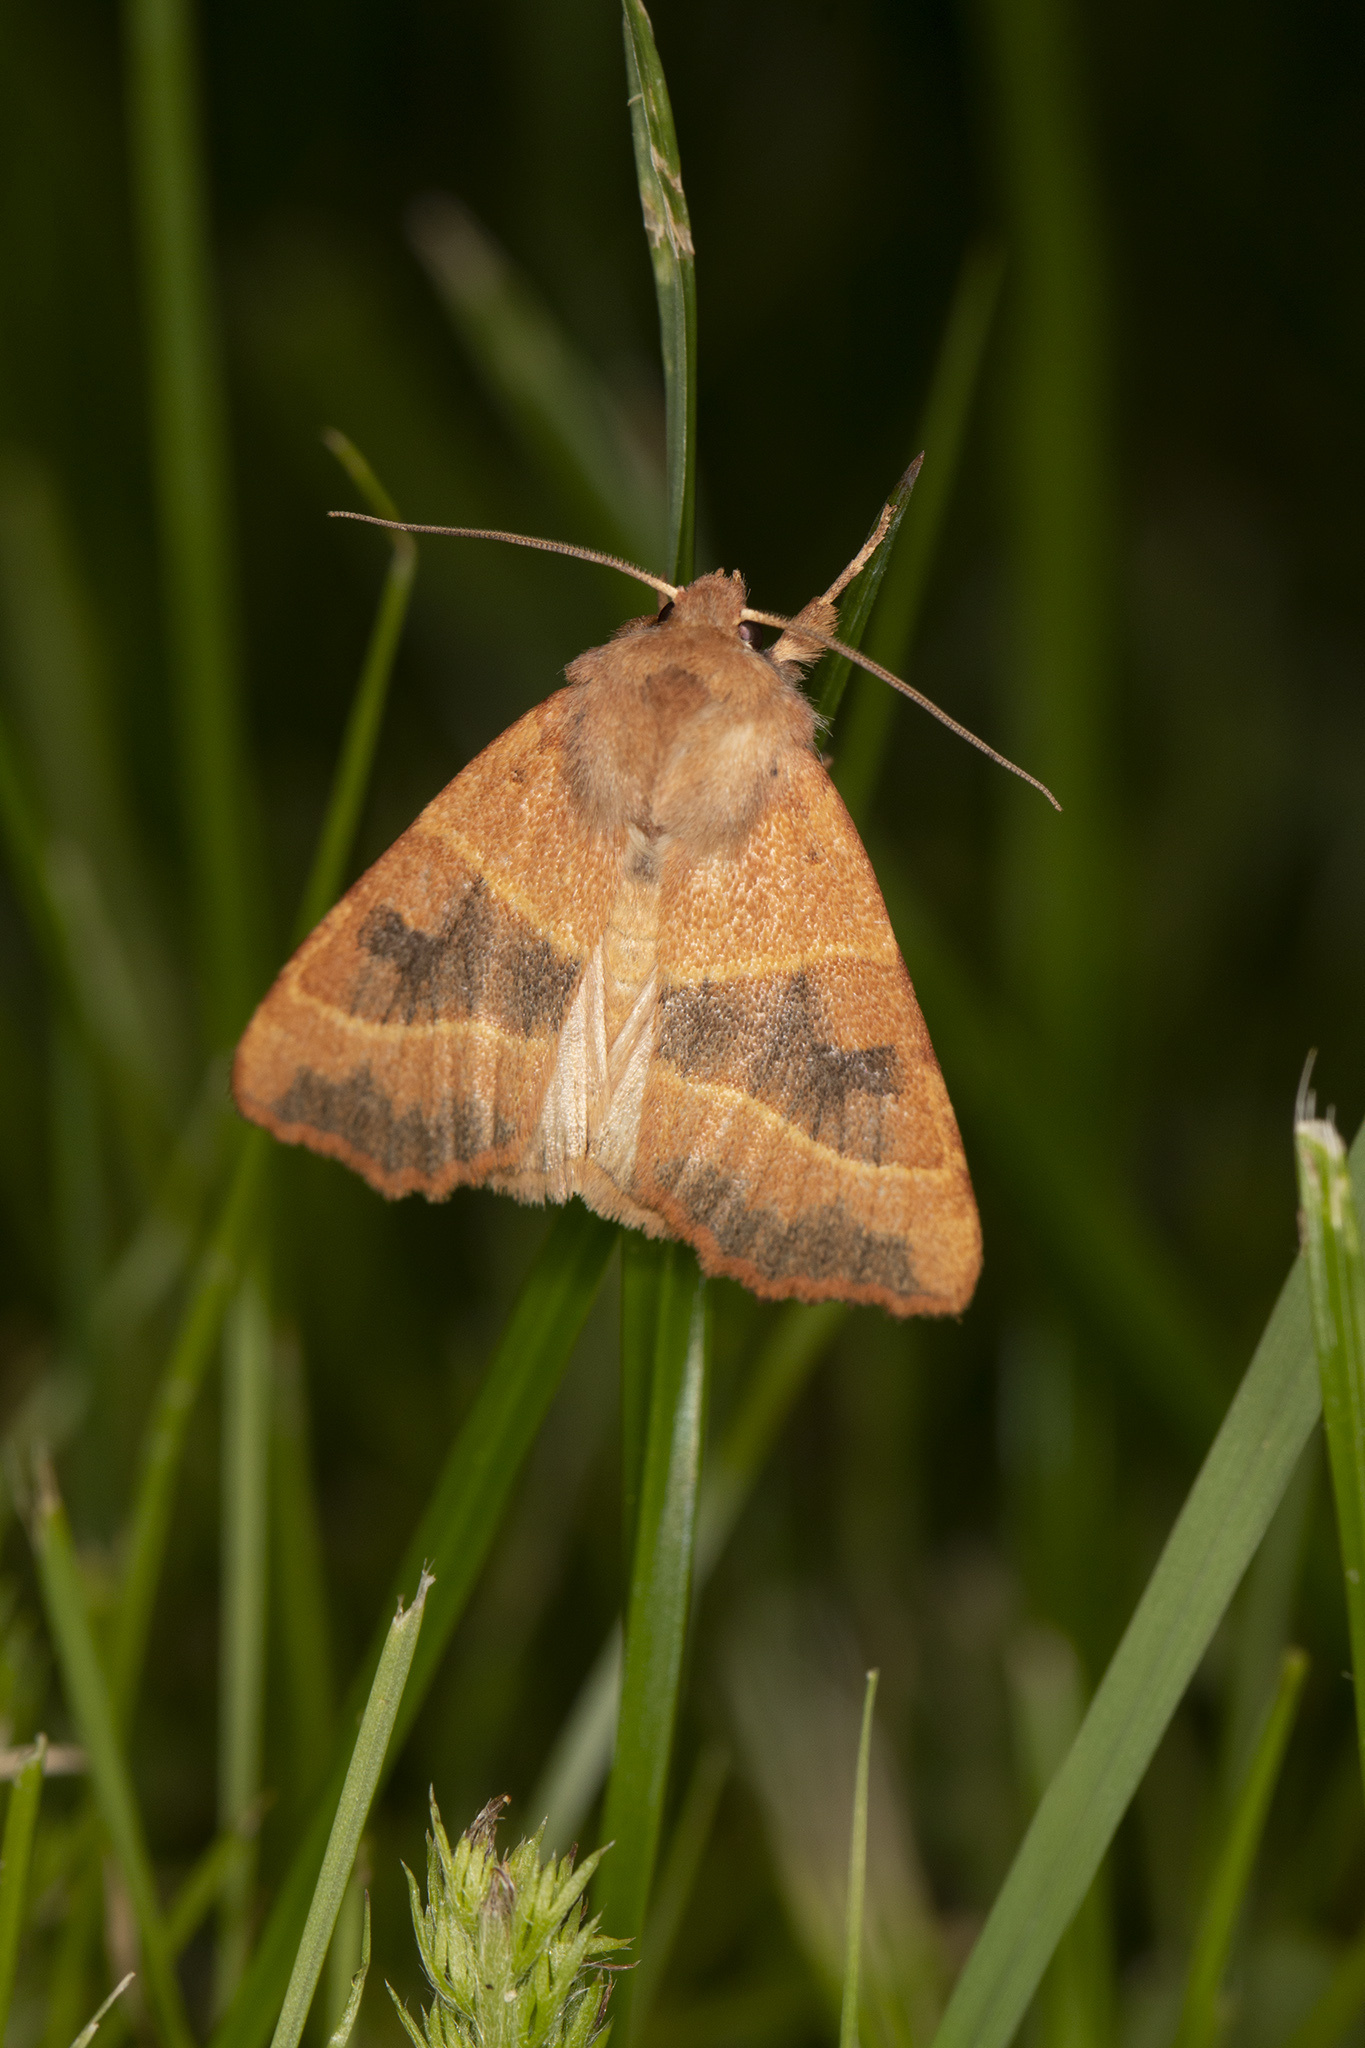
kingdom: Animalia
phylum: Arthropoda
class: Insecta
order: Lepidoptera
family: Noctuidae
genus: Atethmia
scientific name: Atethmia centrago
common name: Centre-barred sallow
